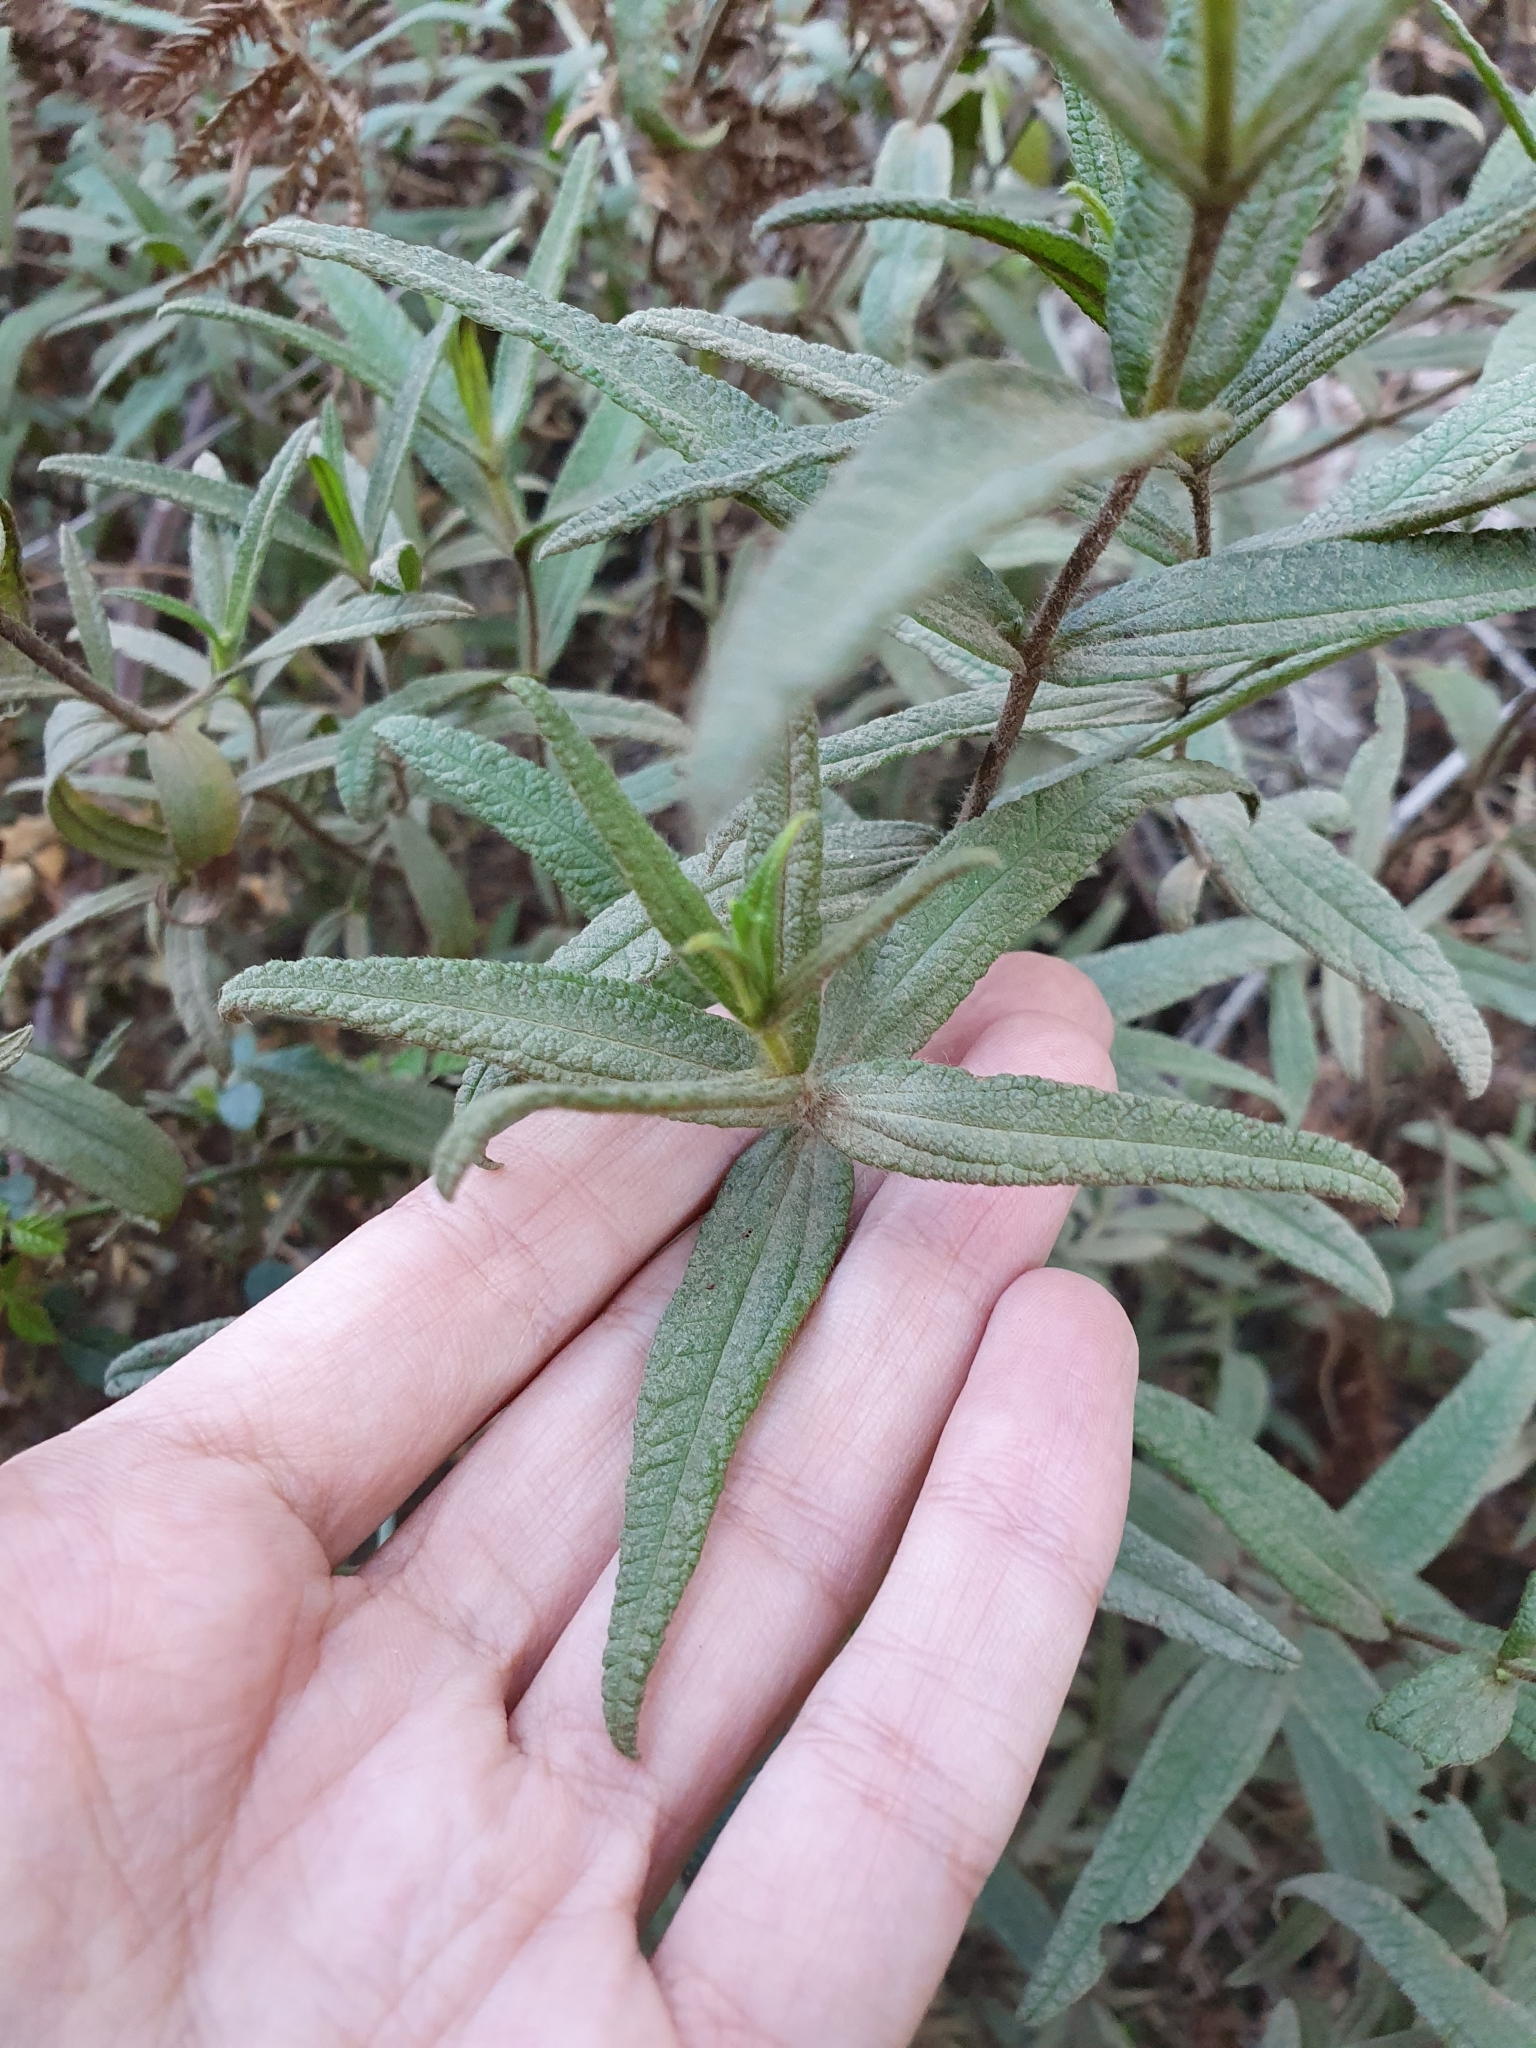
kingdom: Plantae
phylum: Tracheophyta
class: Magnoliopsida
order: Malvales
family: Cistaceae
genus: Cistus
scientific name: Cistus monspeliensis
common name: Montpelier cistus
